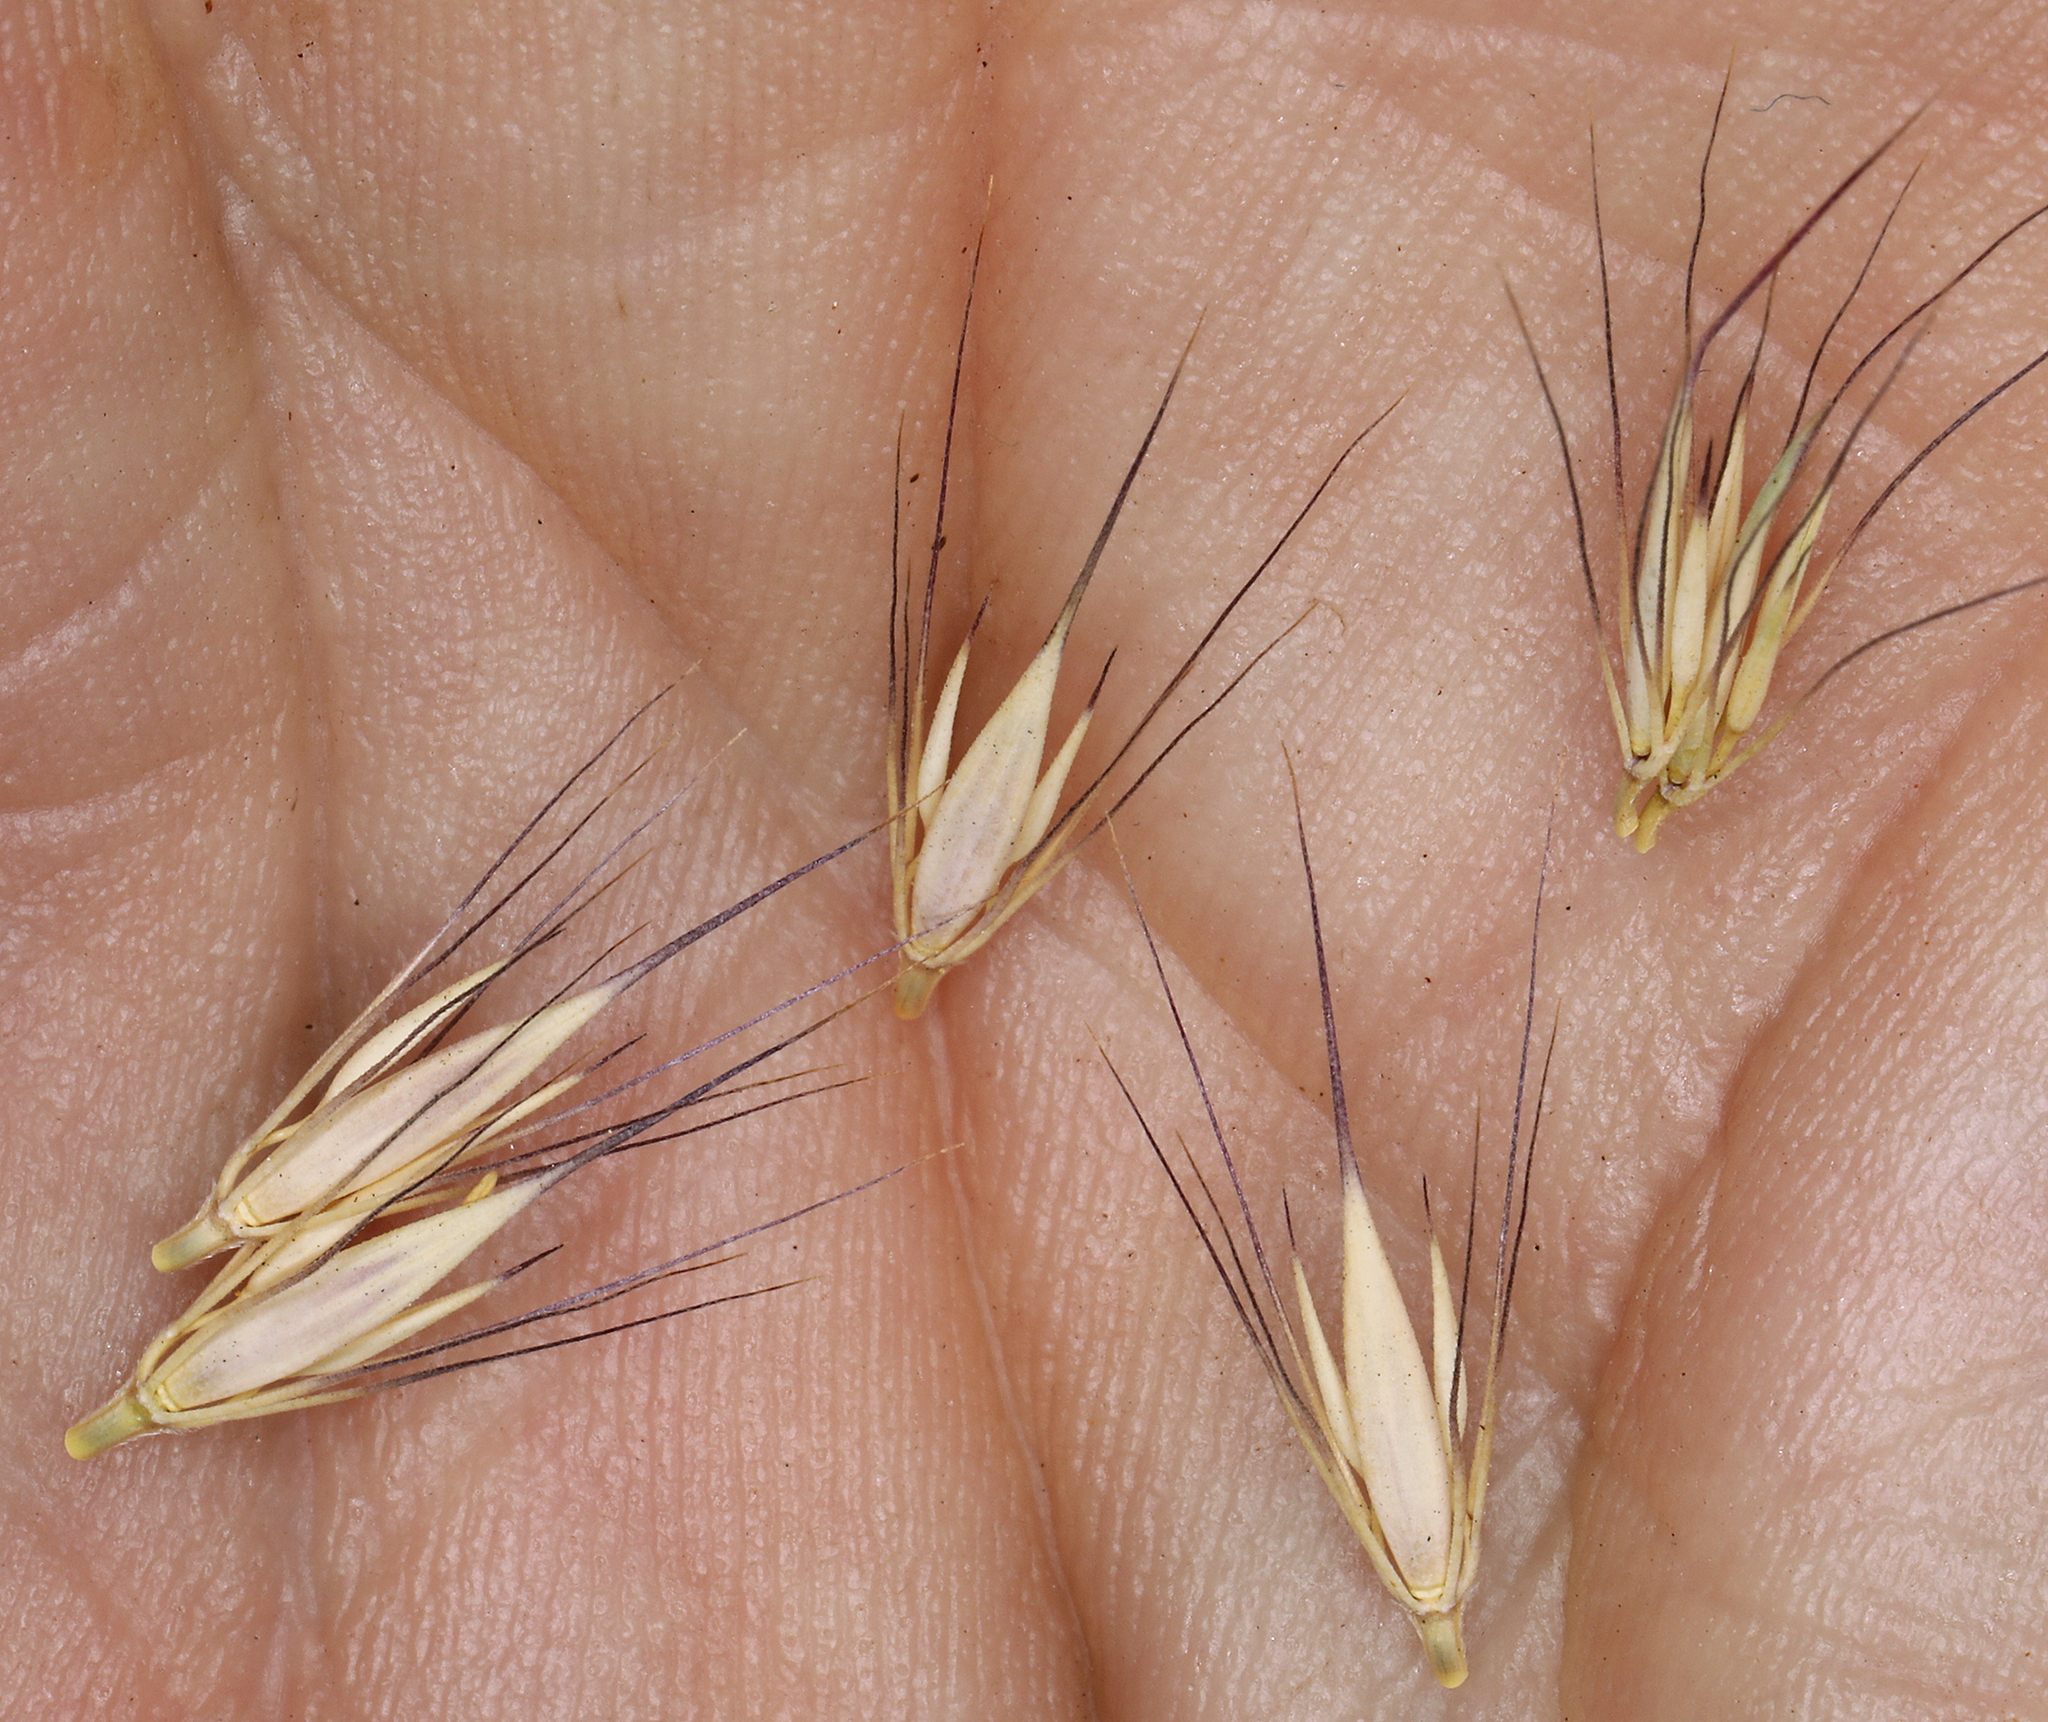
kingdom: Plantae
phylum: Tracheophyta
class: Liliopsida
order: Poales
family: Poaceae
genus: Hordeum
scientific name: Hordeum brachyantherum
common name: Meadow barley
